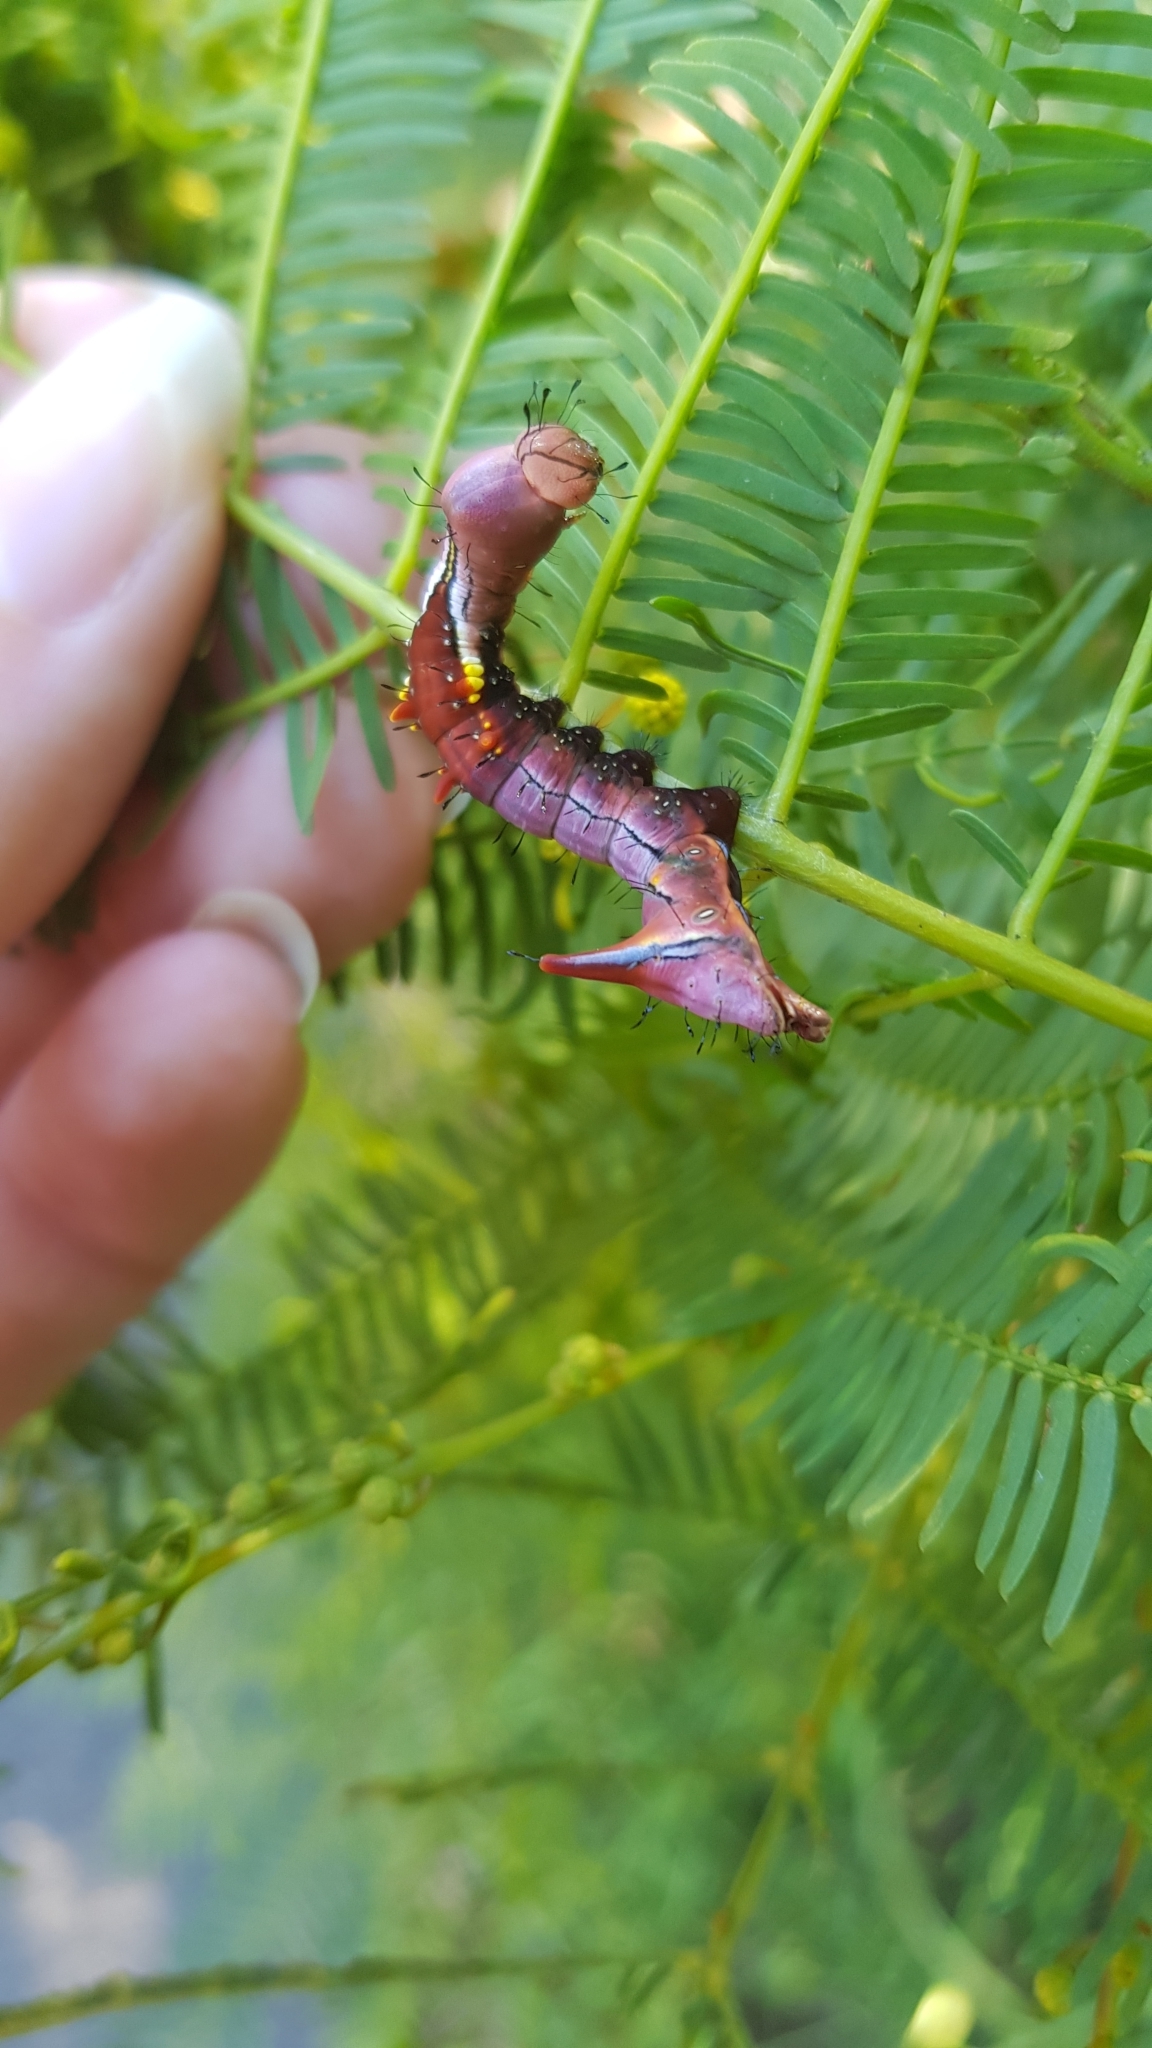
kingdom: Animalia
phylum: Arthropoda
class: Insecta
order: Lepidoptera
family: Notodontidae
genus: Neola
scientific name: Neola semiaurata
